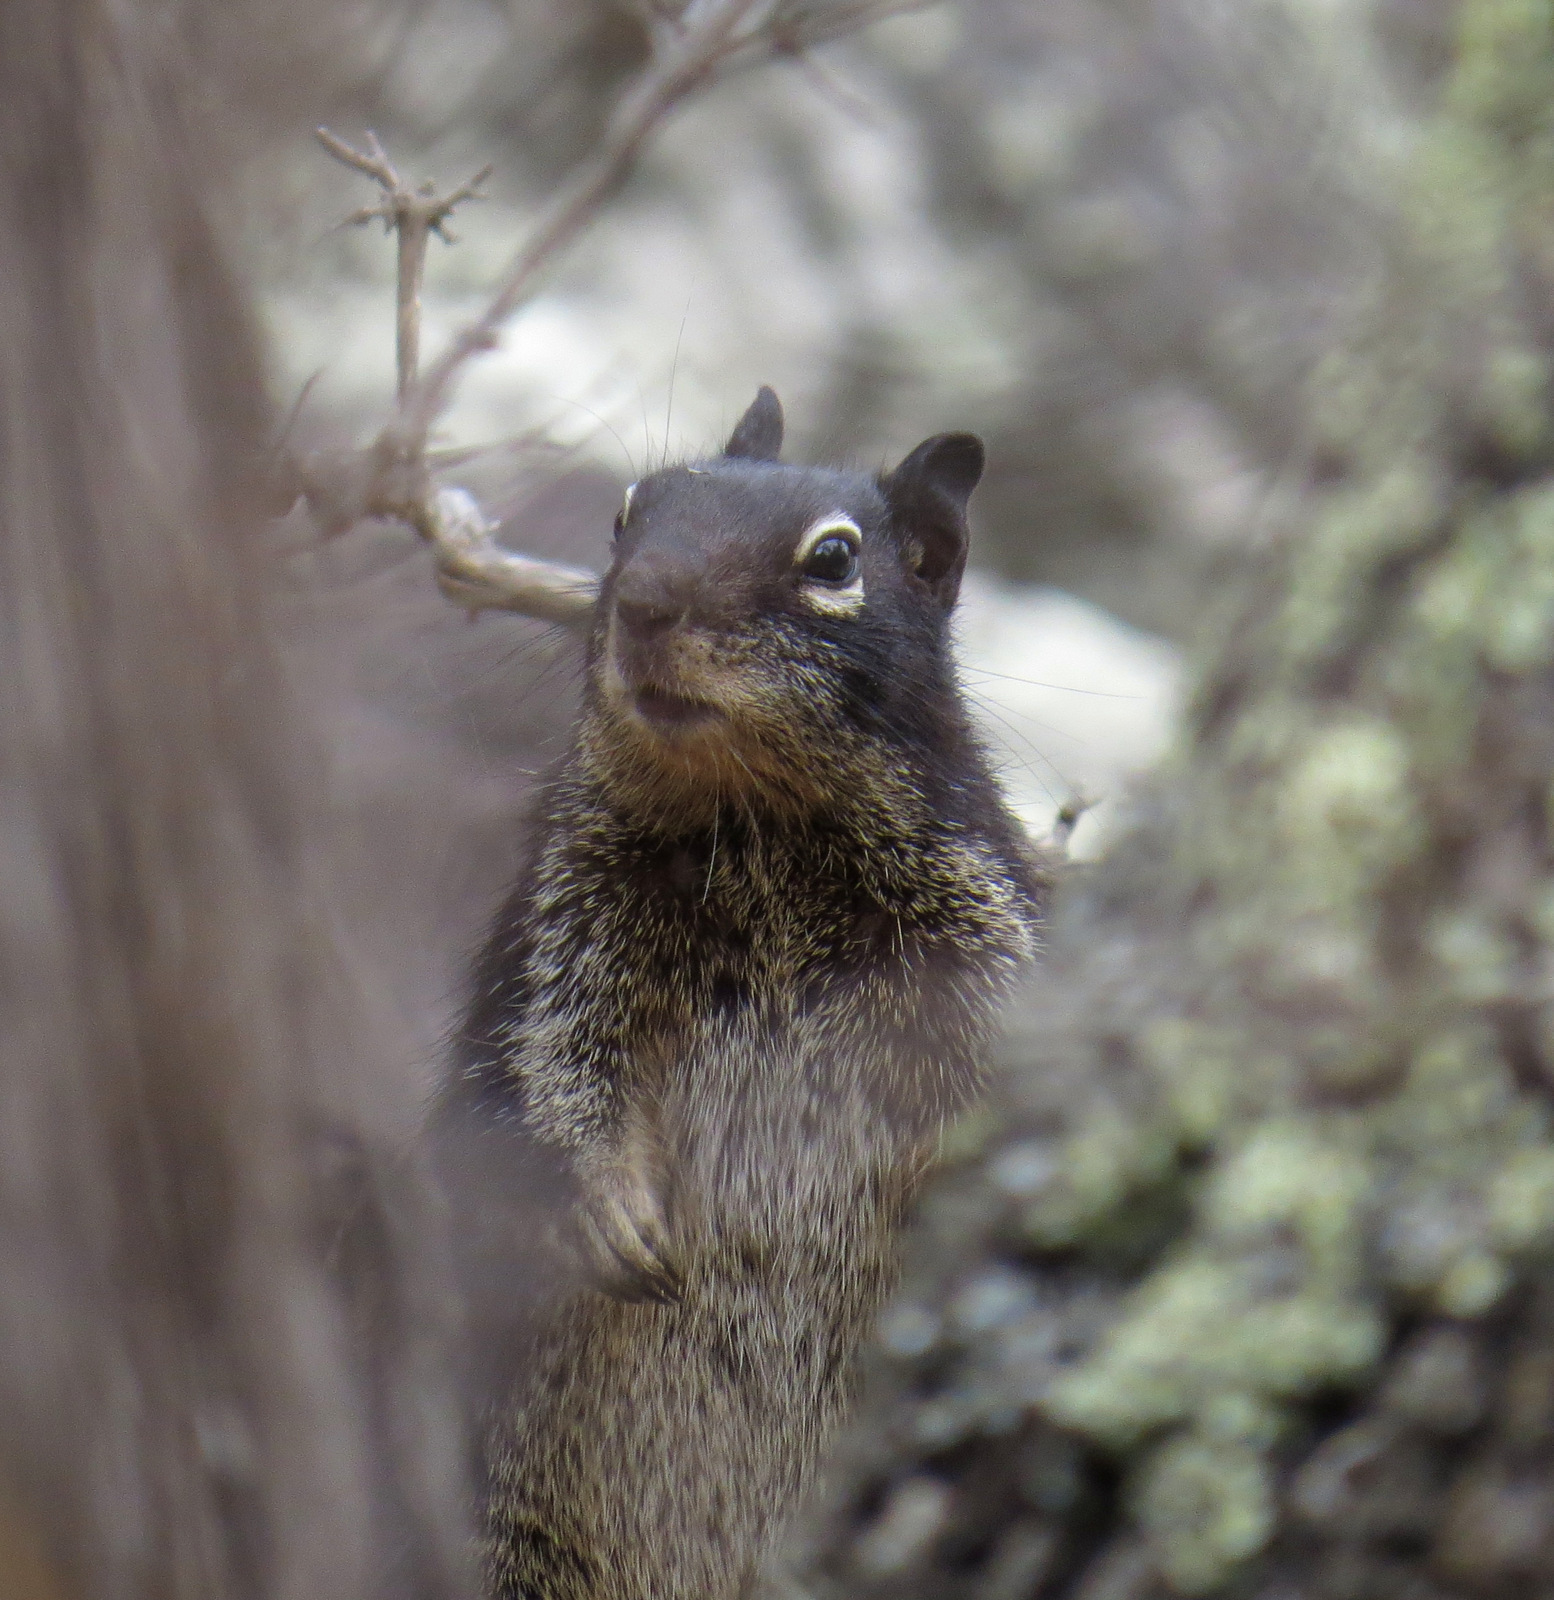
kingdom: Animalia
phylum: Chordata
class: Mammalia
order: Rodentia
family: Sciuridae
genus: Otospermophilus
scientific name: Otospermophilus variegatus
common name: Rock squirrel
